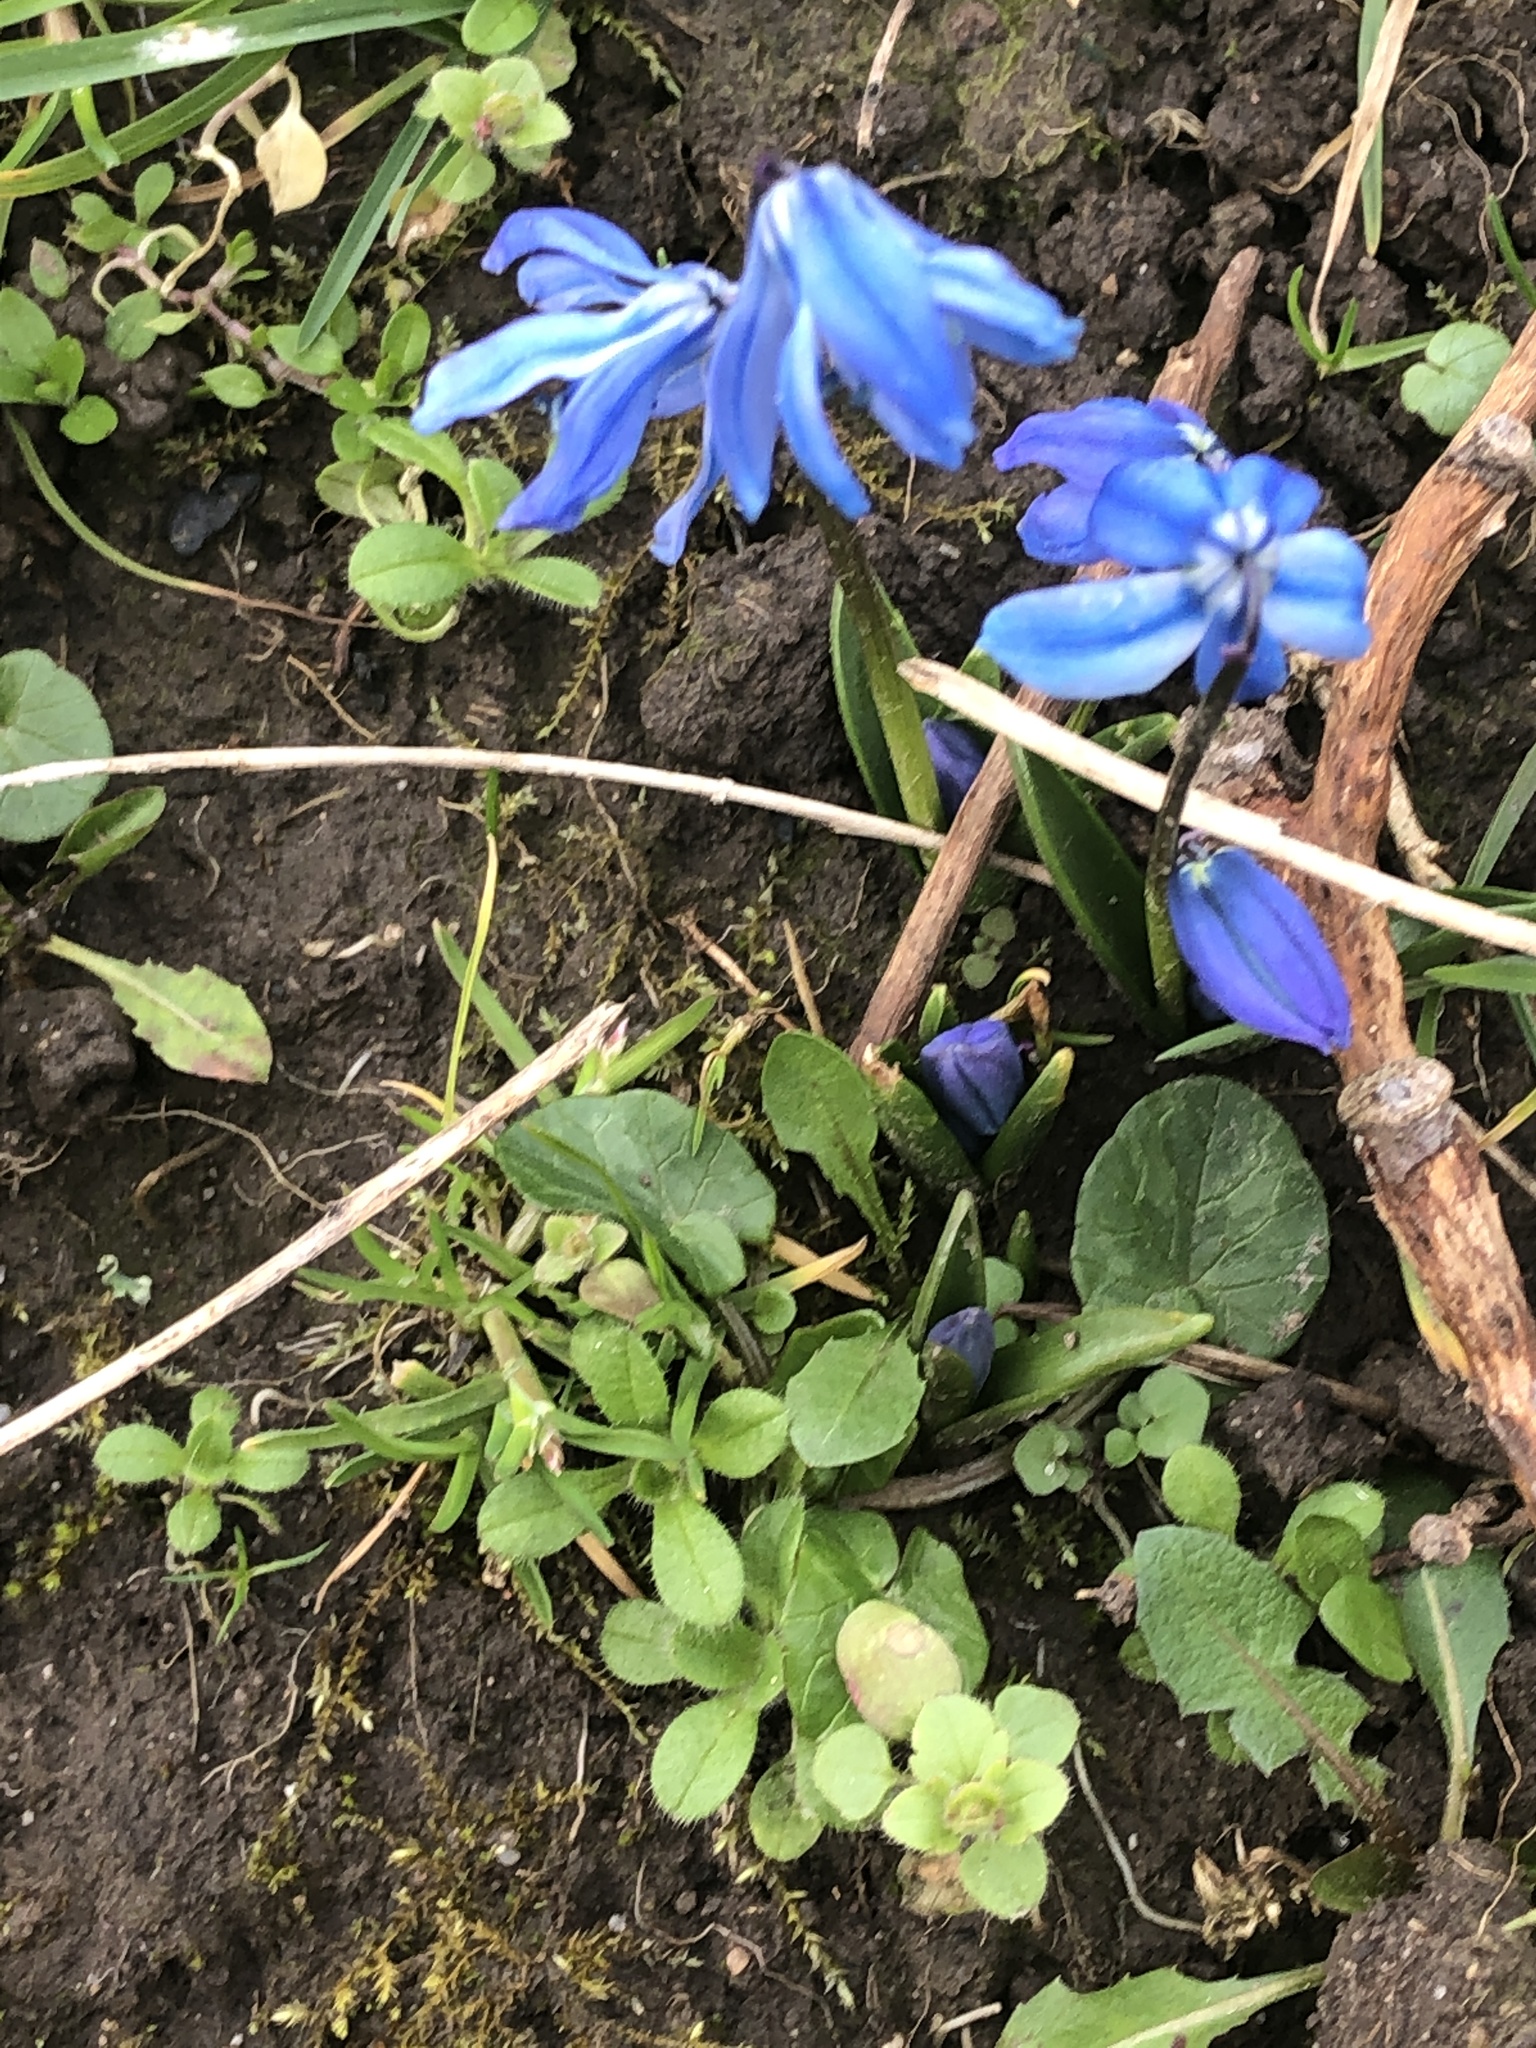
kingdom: Plantae
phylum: Tracheophyta
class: Liliopsida
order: Asparagales
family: Asparagaceae
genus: Scilla
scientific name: Scilla siberica
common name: Siberian squill
